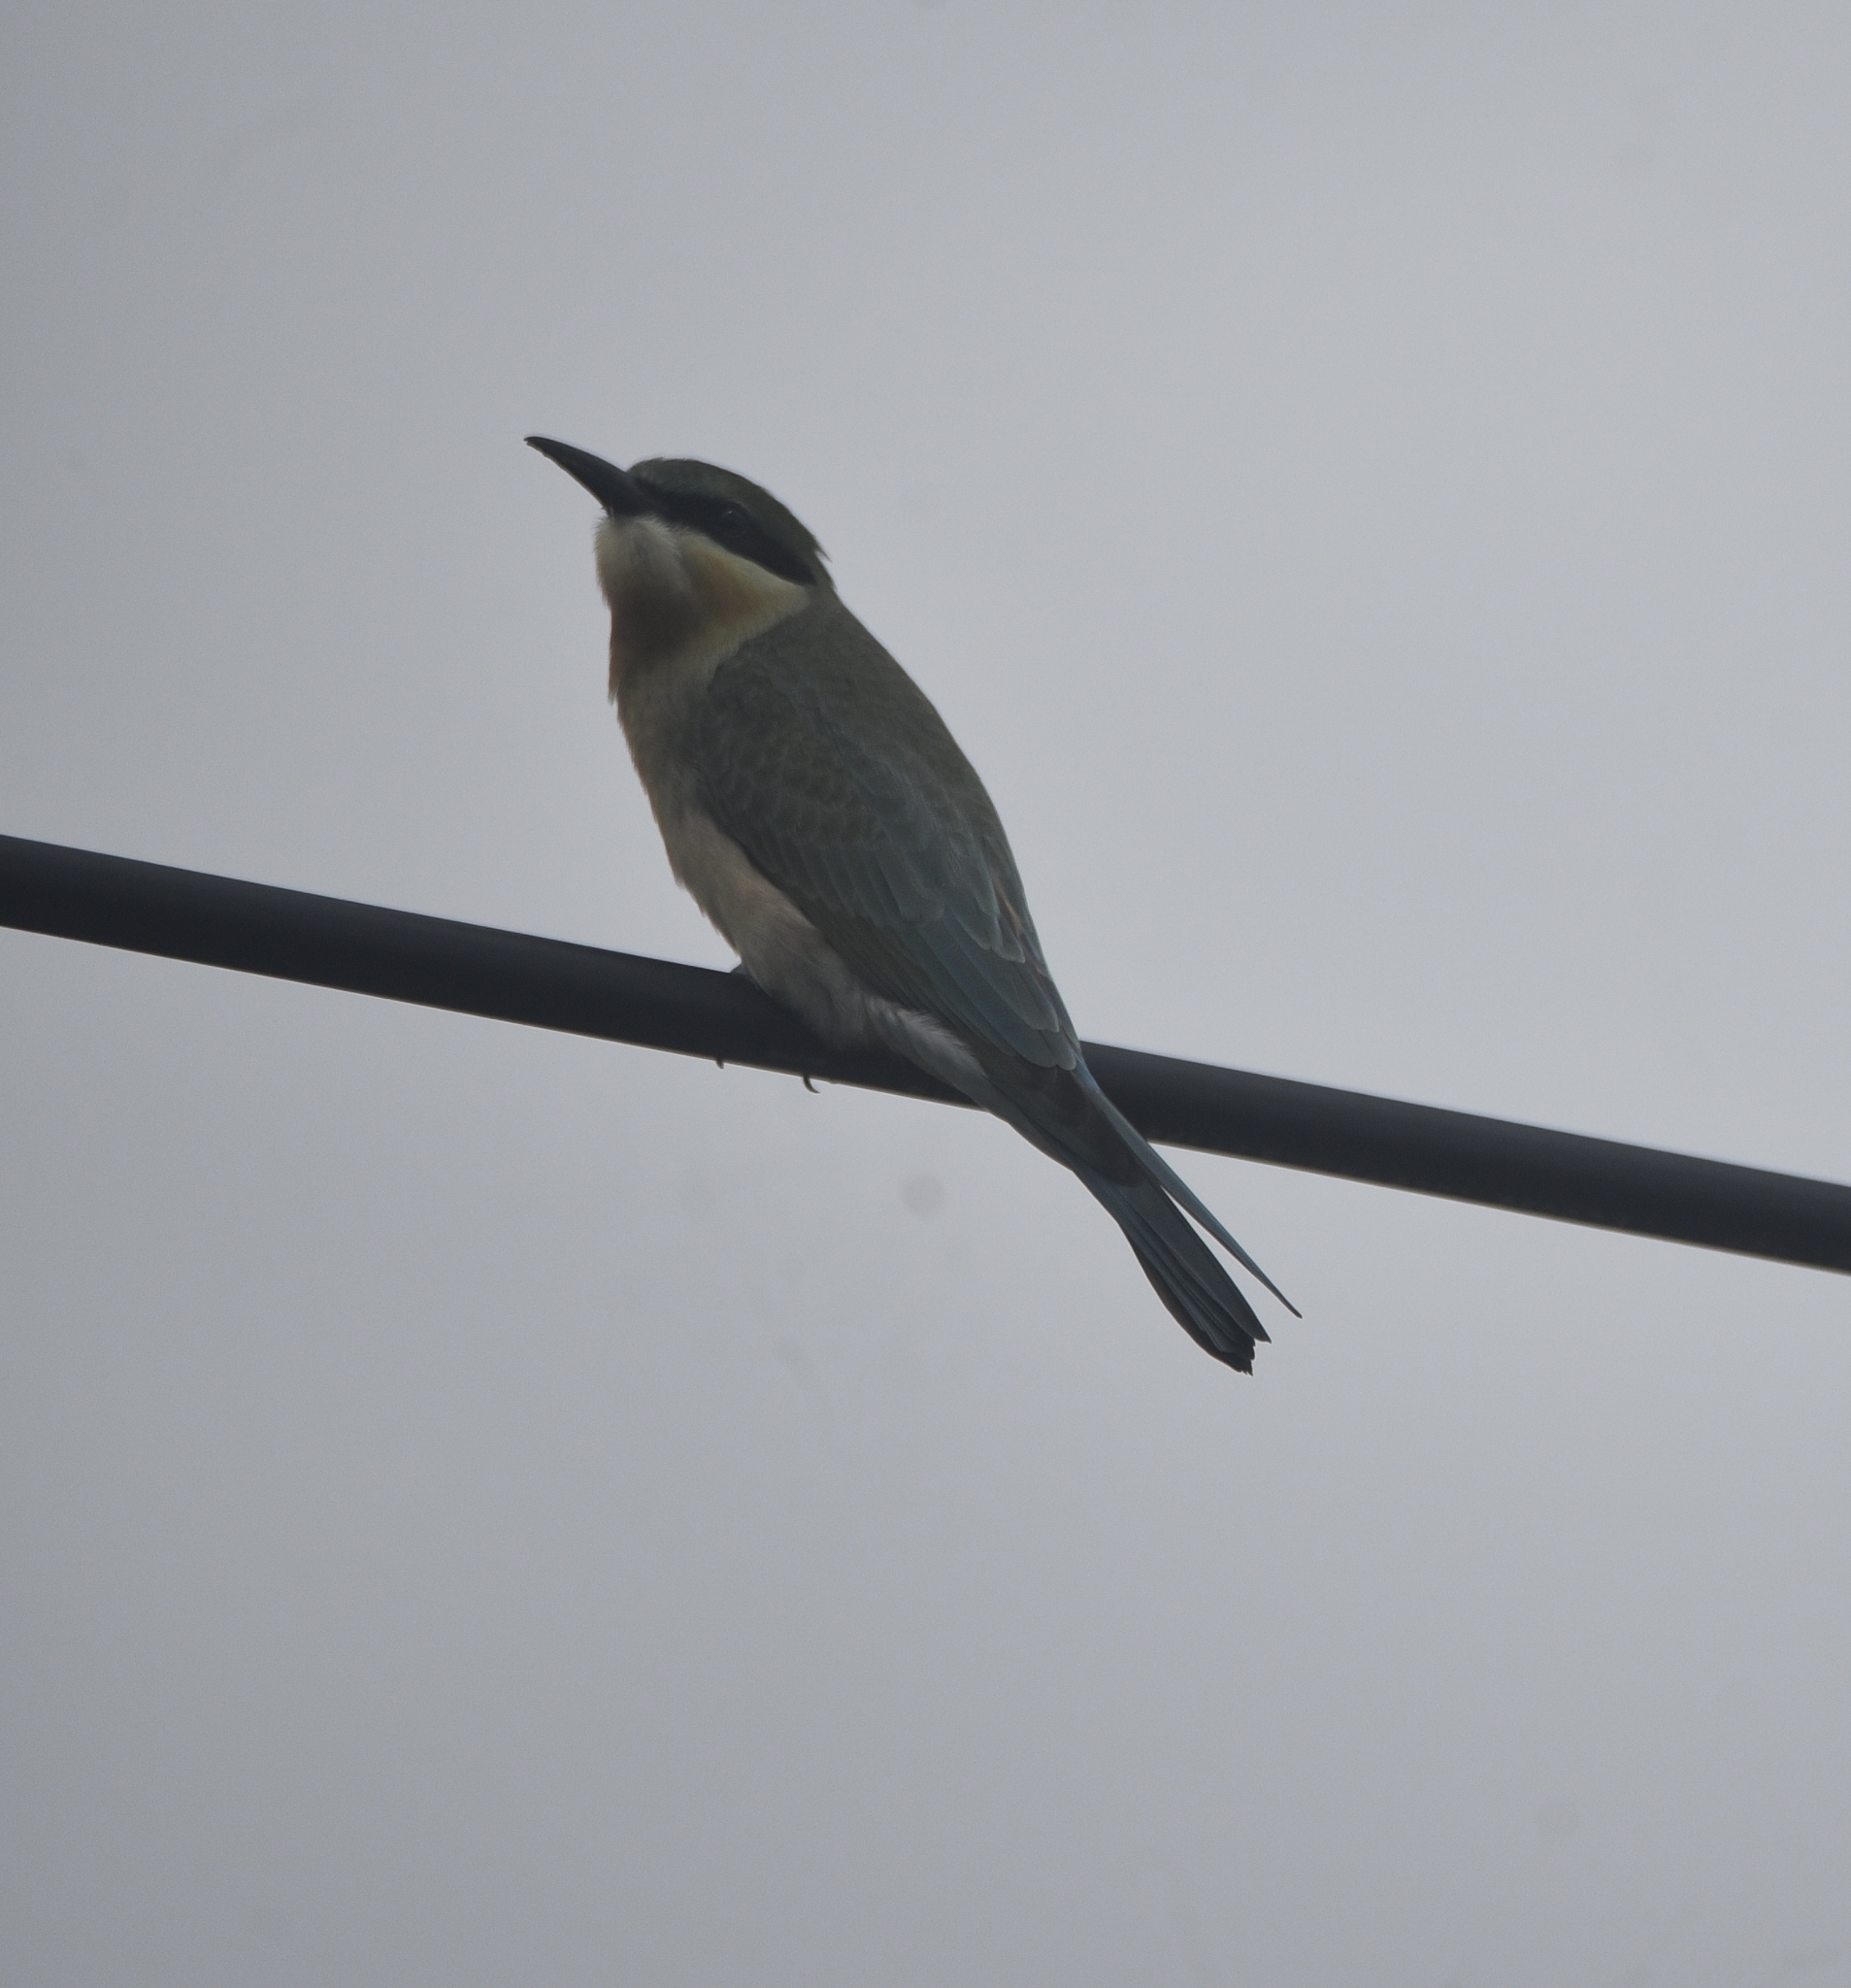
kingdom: Animalia
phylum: Chordata
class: Aves
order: Coraciiformes
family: Meropidae
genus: Merops
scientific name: Merops philippinus
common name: Blue-tailed bee-eater
